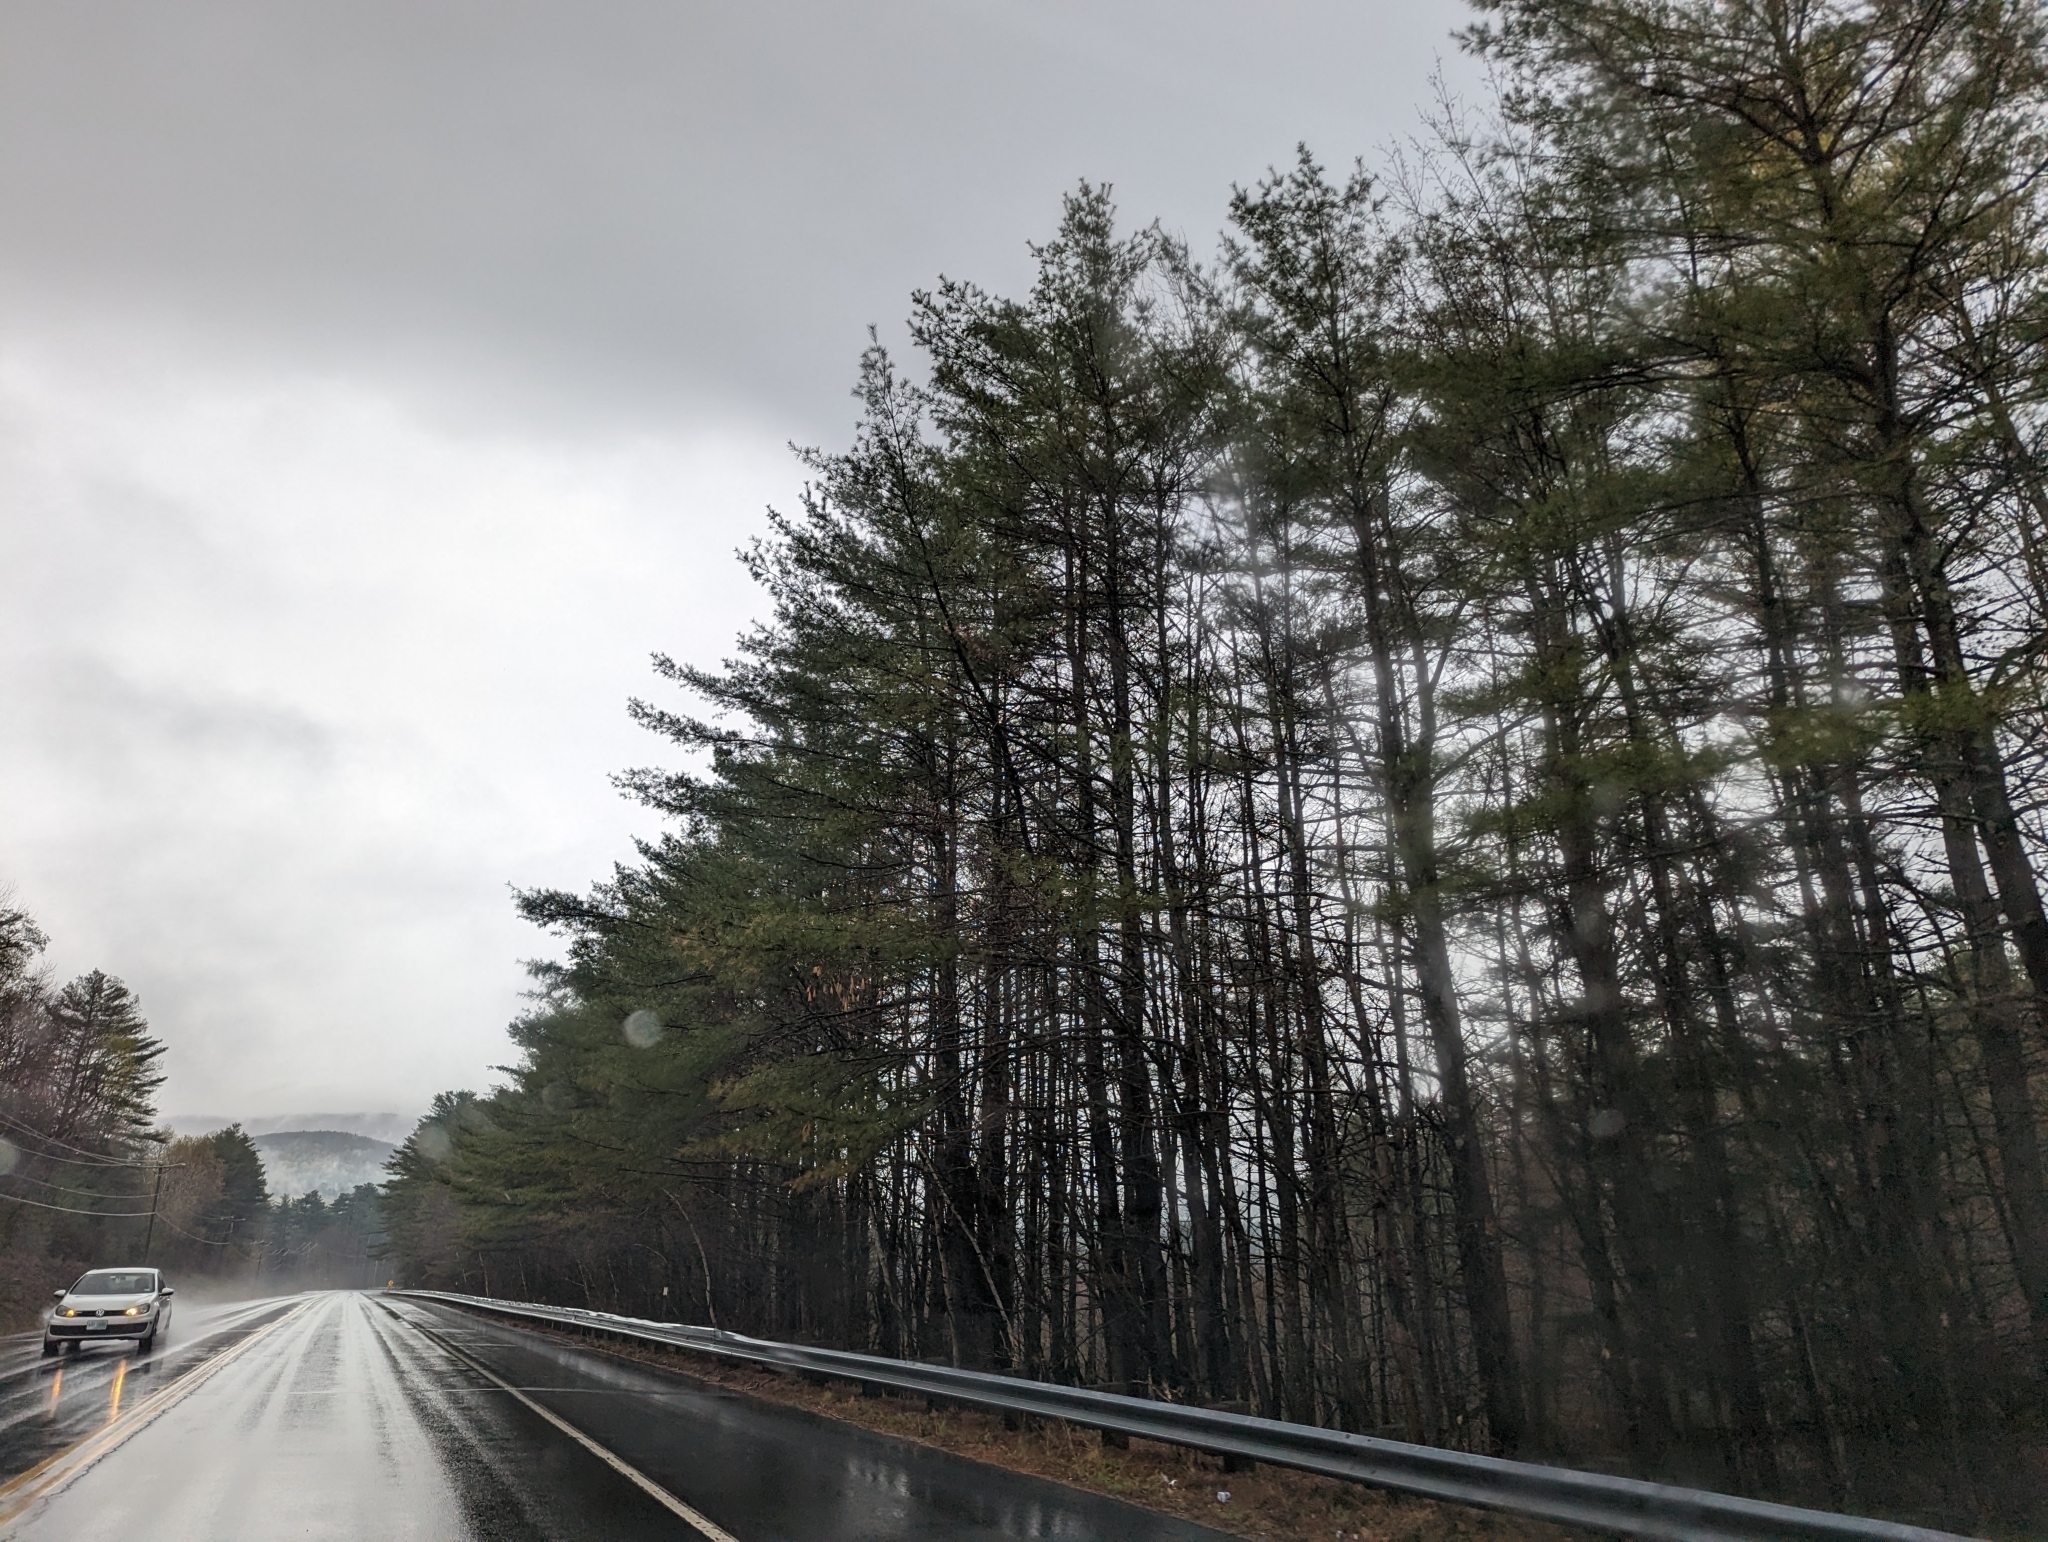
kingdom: Plantae
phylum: Tracheophyta
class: Pinopsida
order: Pinales
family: Pinaceae
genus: Pinus
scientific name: Pinus strobus
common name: Weymouth pine
